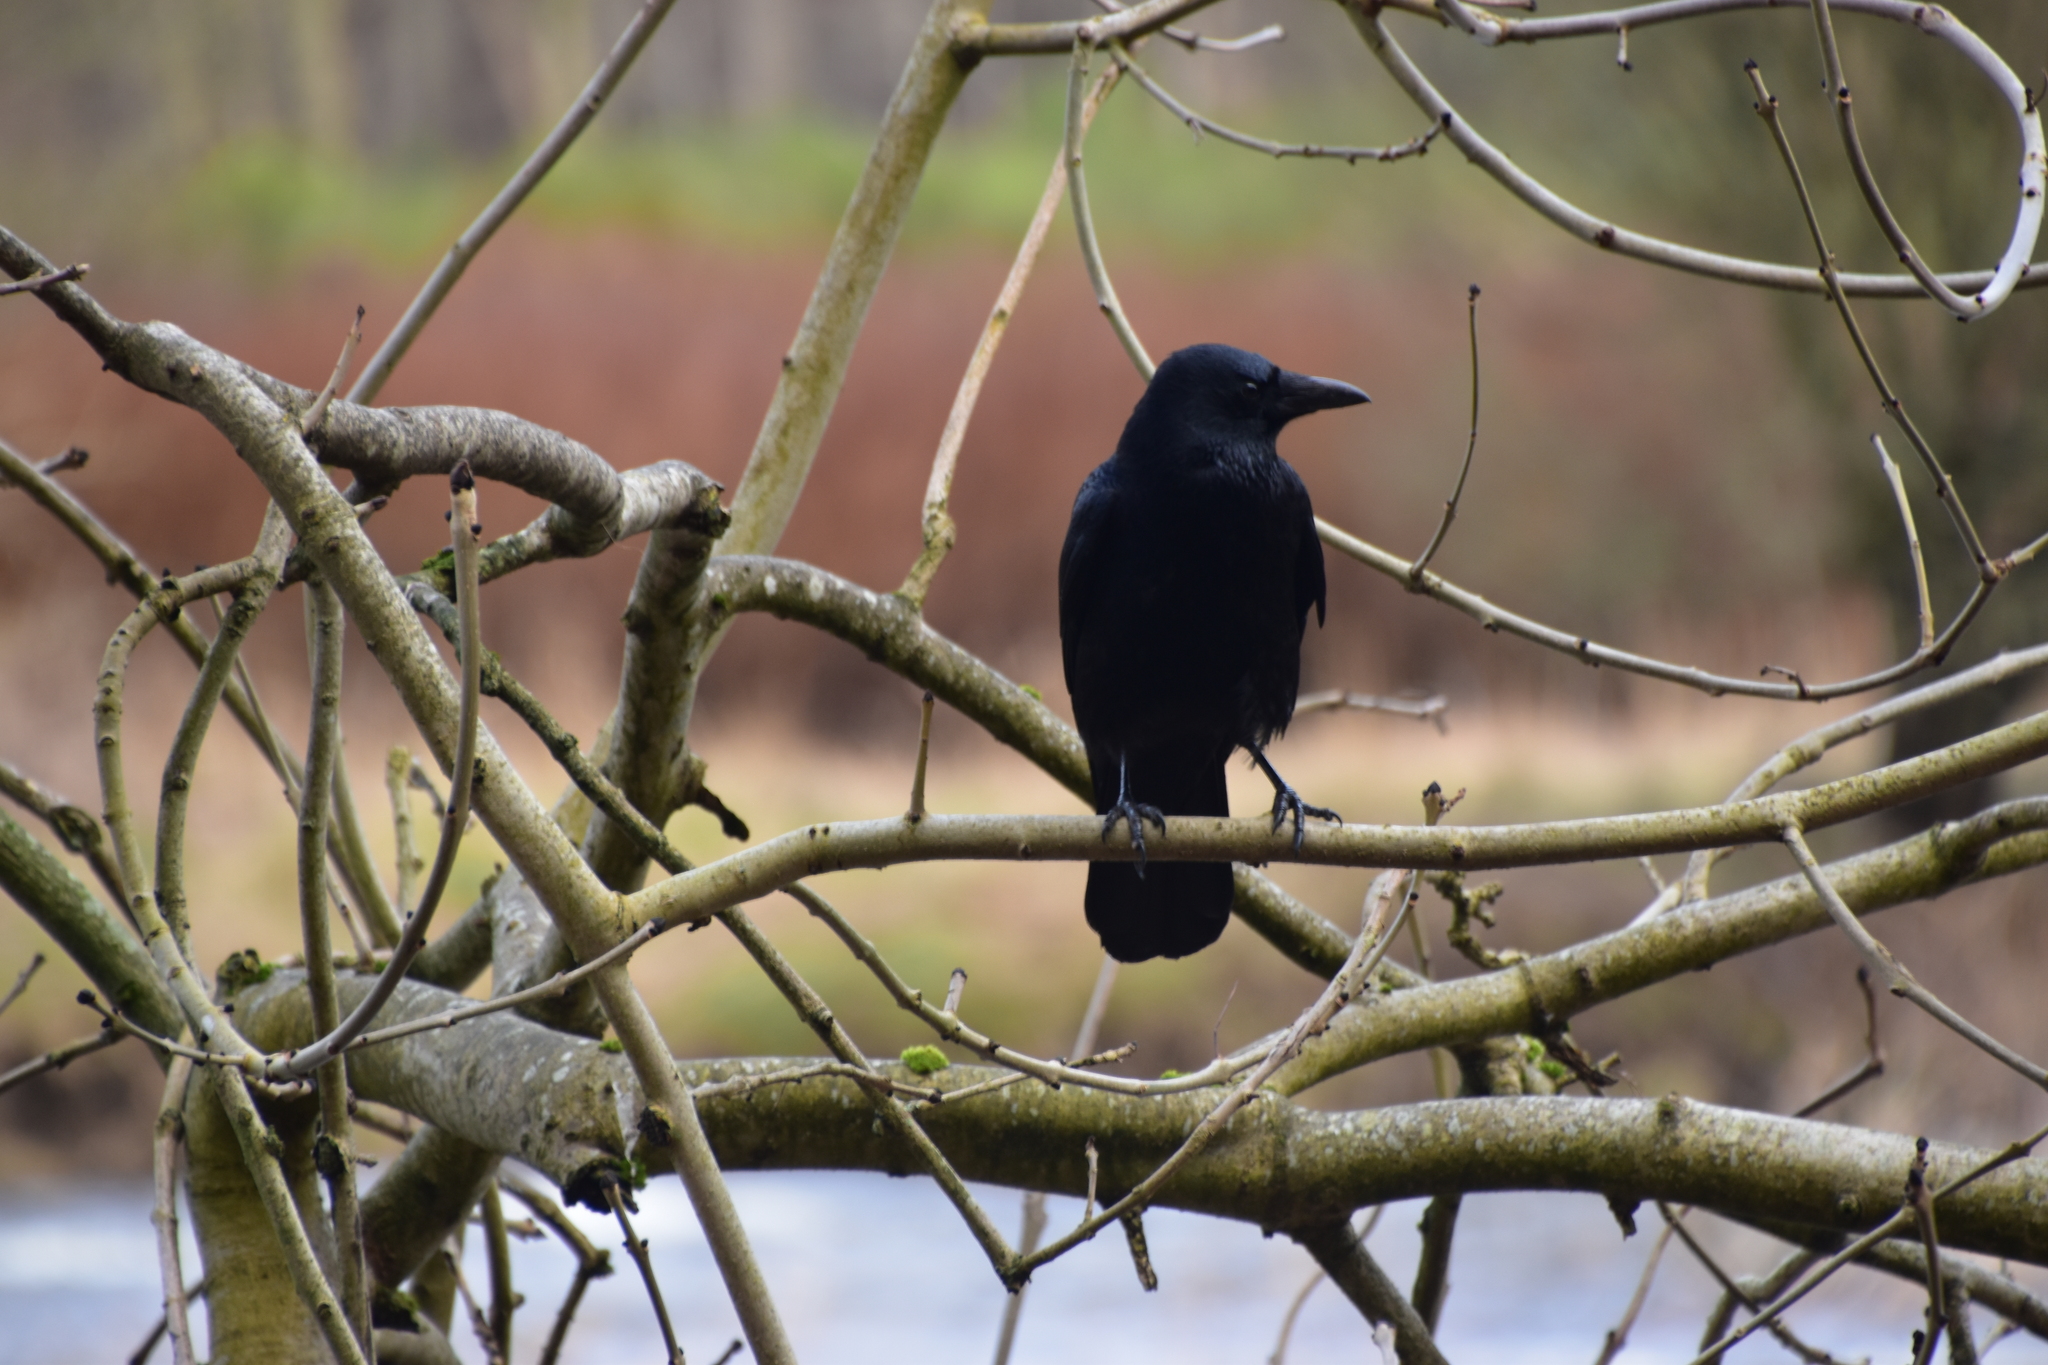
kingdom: Animalia
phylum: Chordata
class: Aves
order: Passeriformes
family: Corvidae
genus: Corvus
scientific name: Corvus corone
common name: Carrion crow
